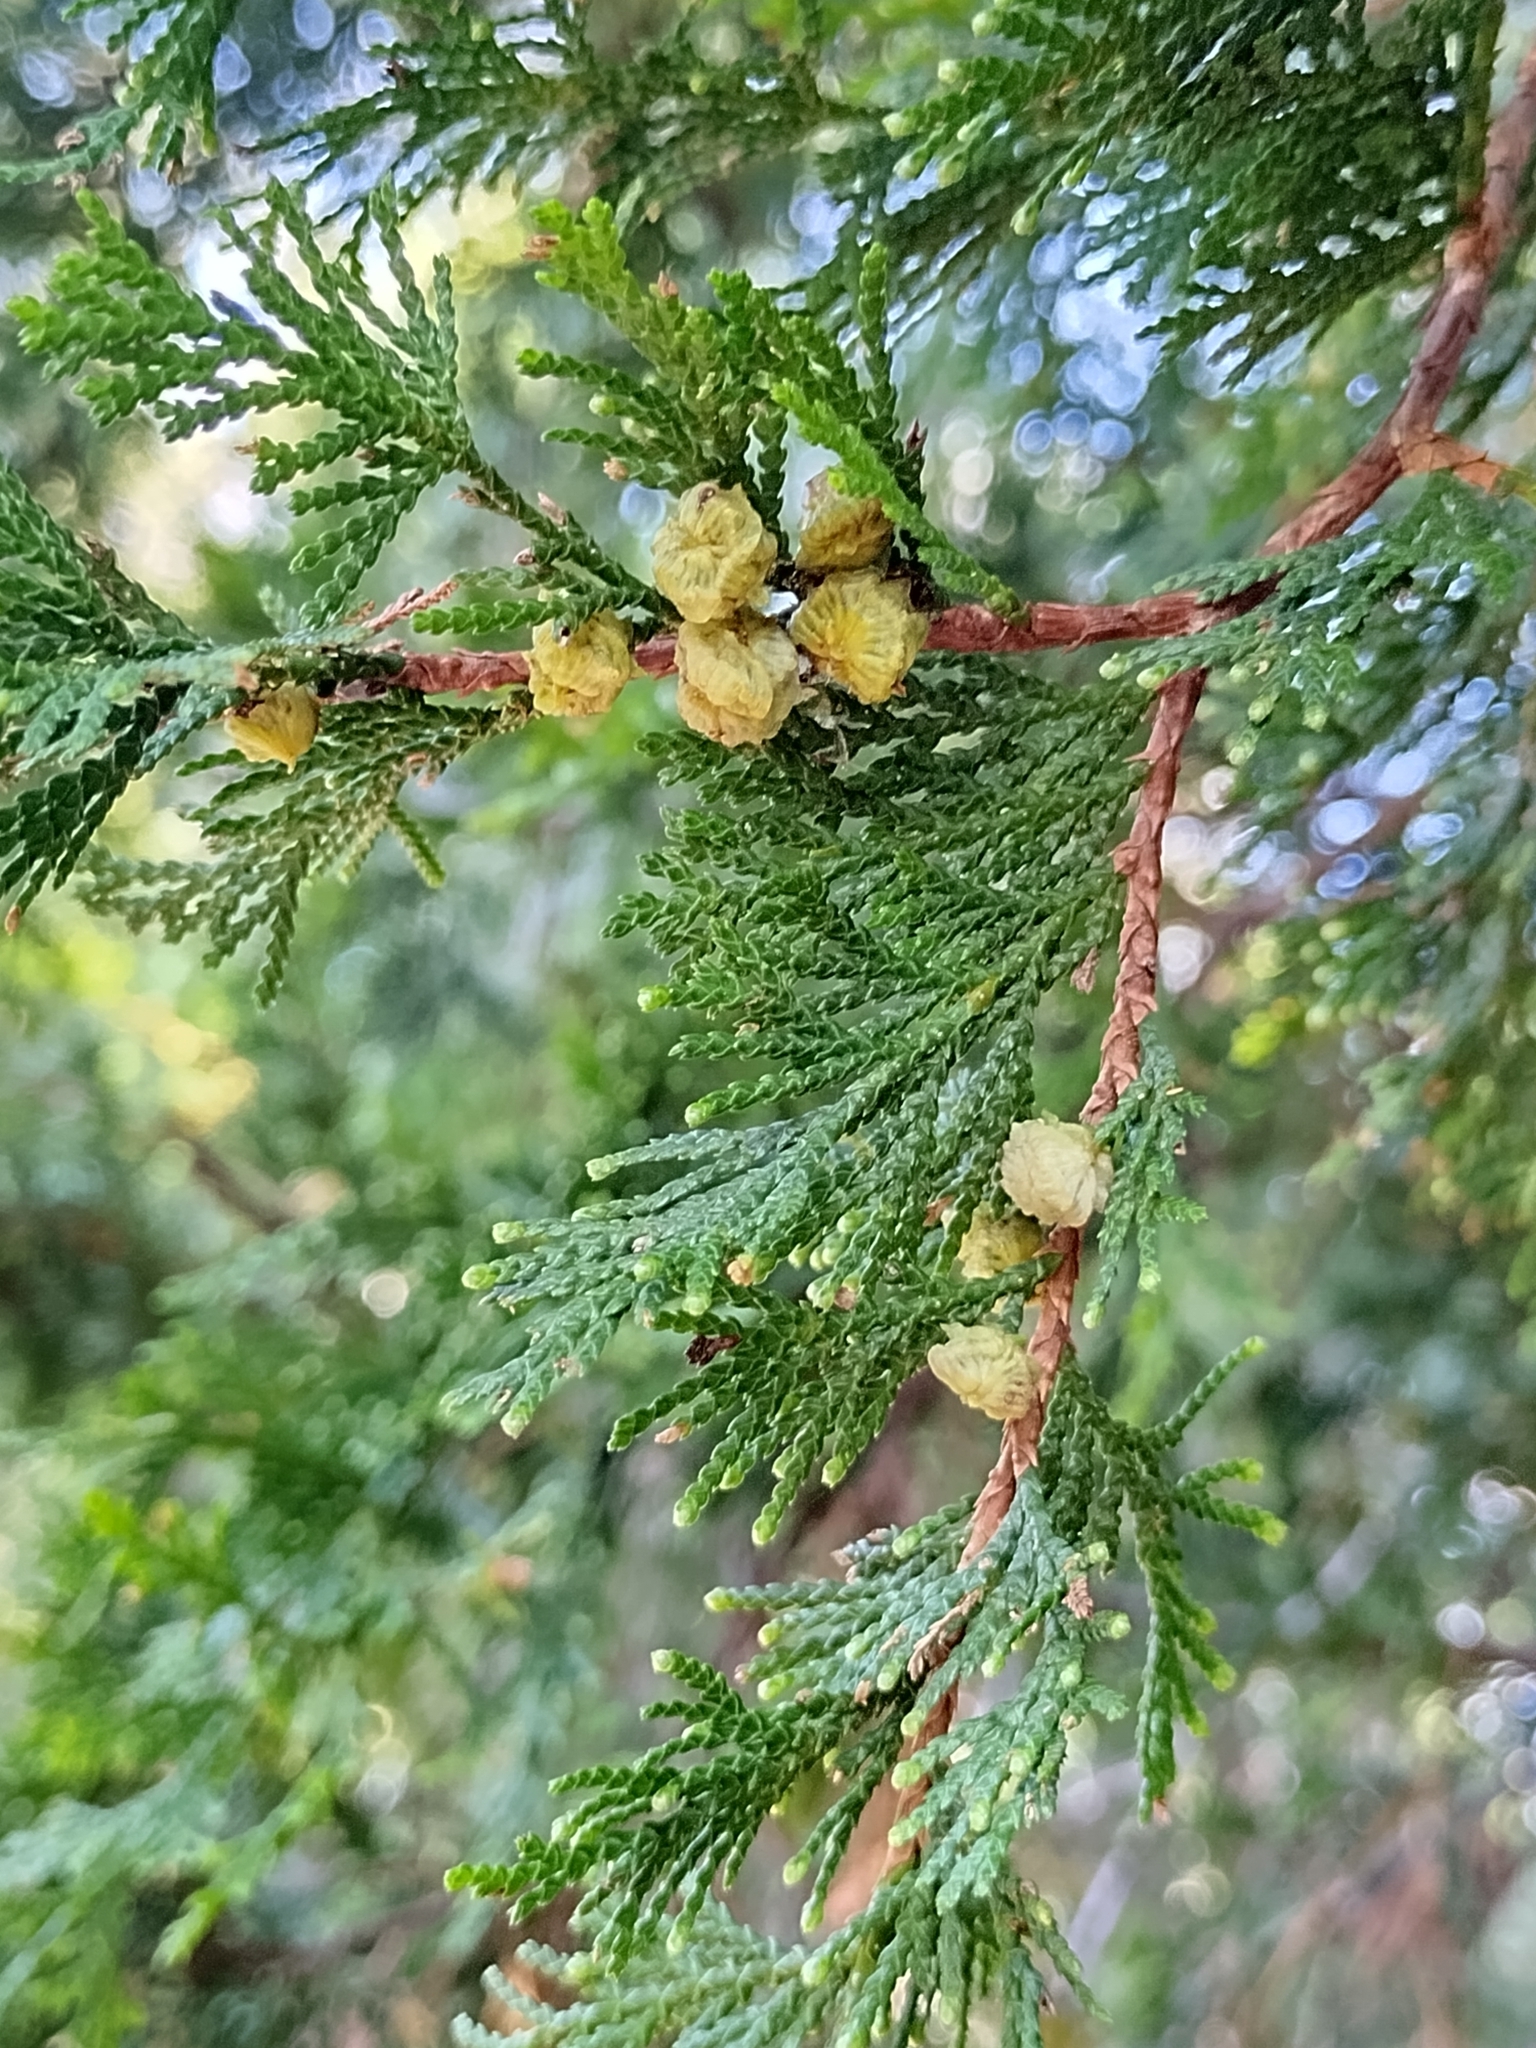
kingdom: Plantae
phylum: Tracheophyta
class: Pinopsida
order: Pinales
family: Cupressaceae
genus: Chamaecyparis
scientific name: Chamaecyparis thyoides
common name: Atlantic white cedar
